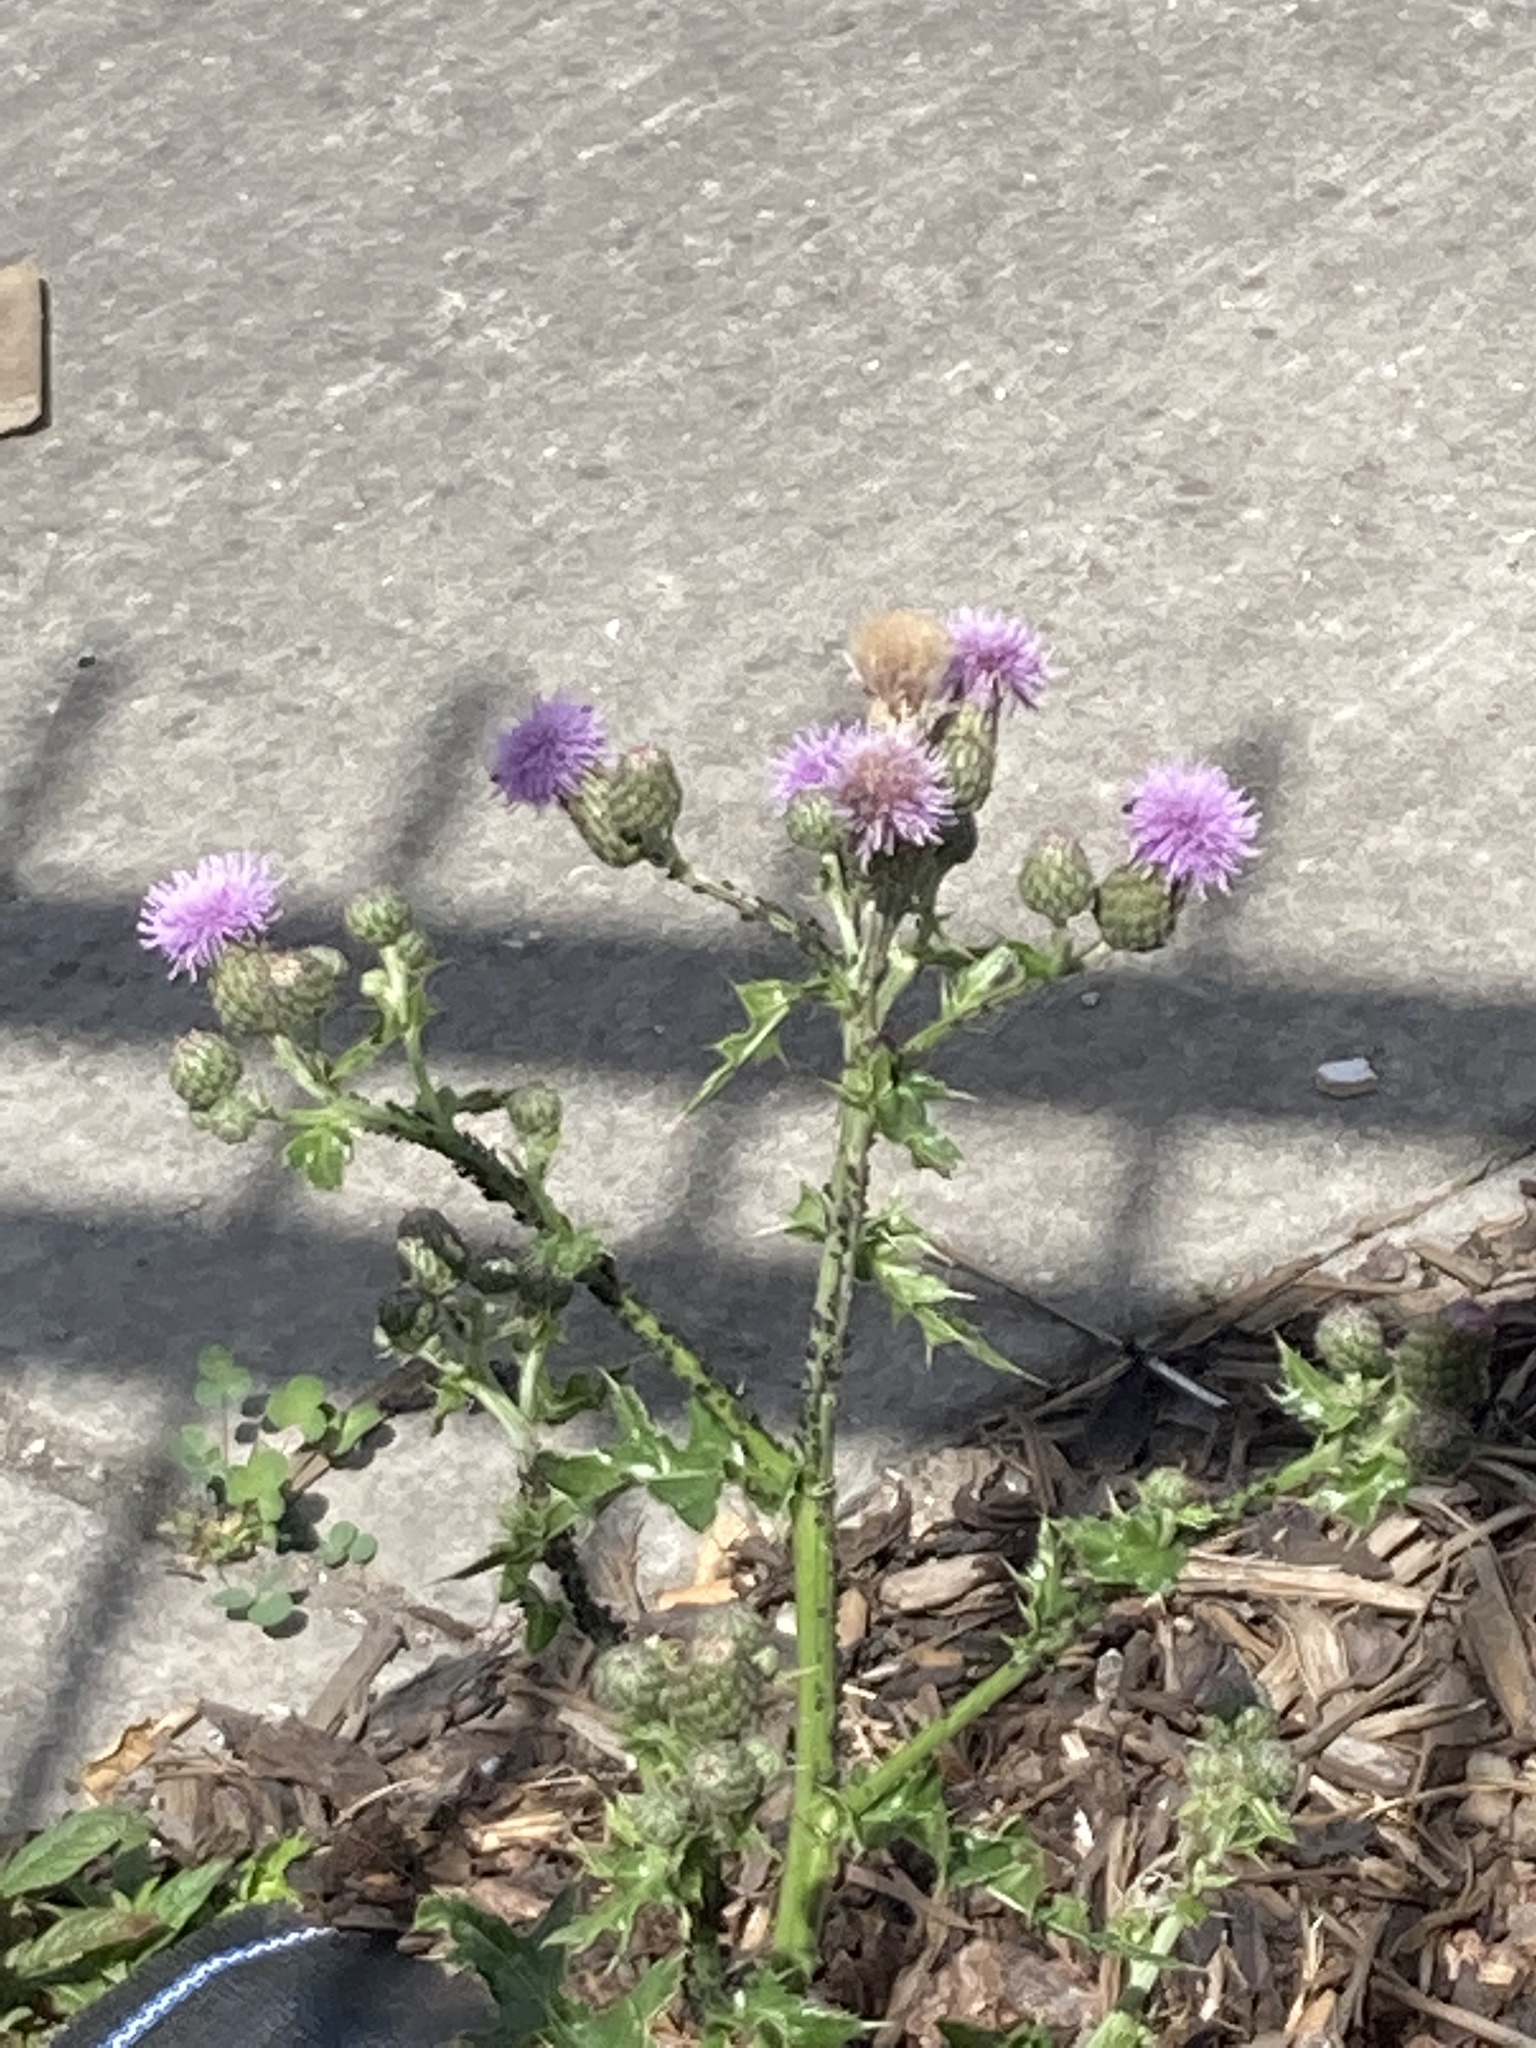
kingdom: Plantae
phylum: Tracheophyta
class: Magnoliopsida
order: Asterales
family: Asteraceae
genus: Cirsium
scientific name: Cirsium arvense
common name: Creeping thistle
